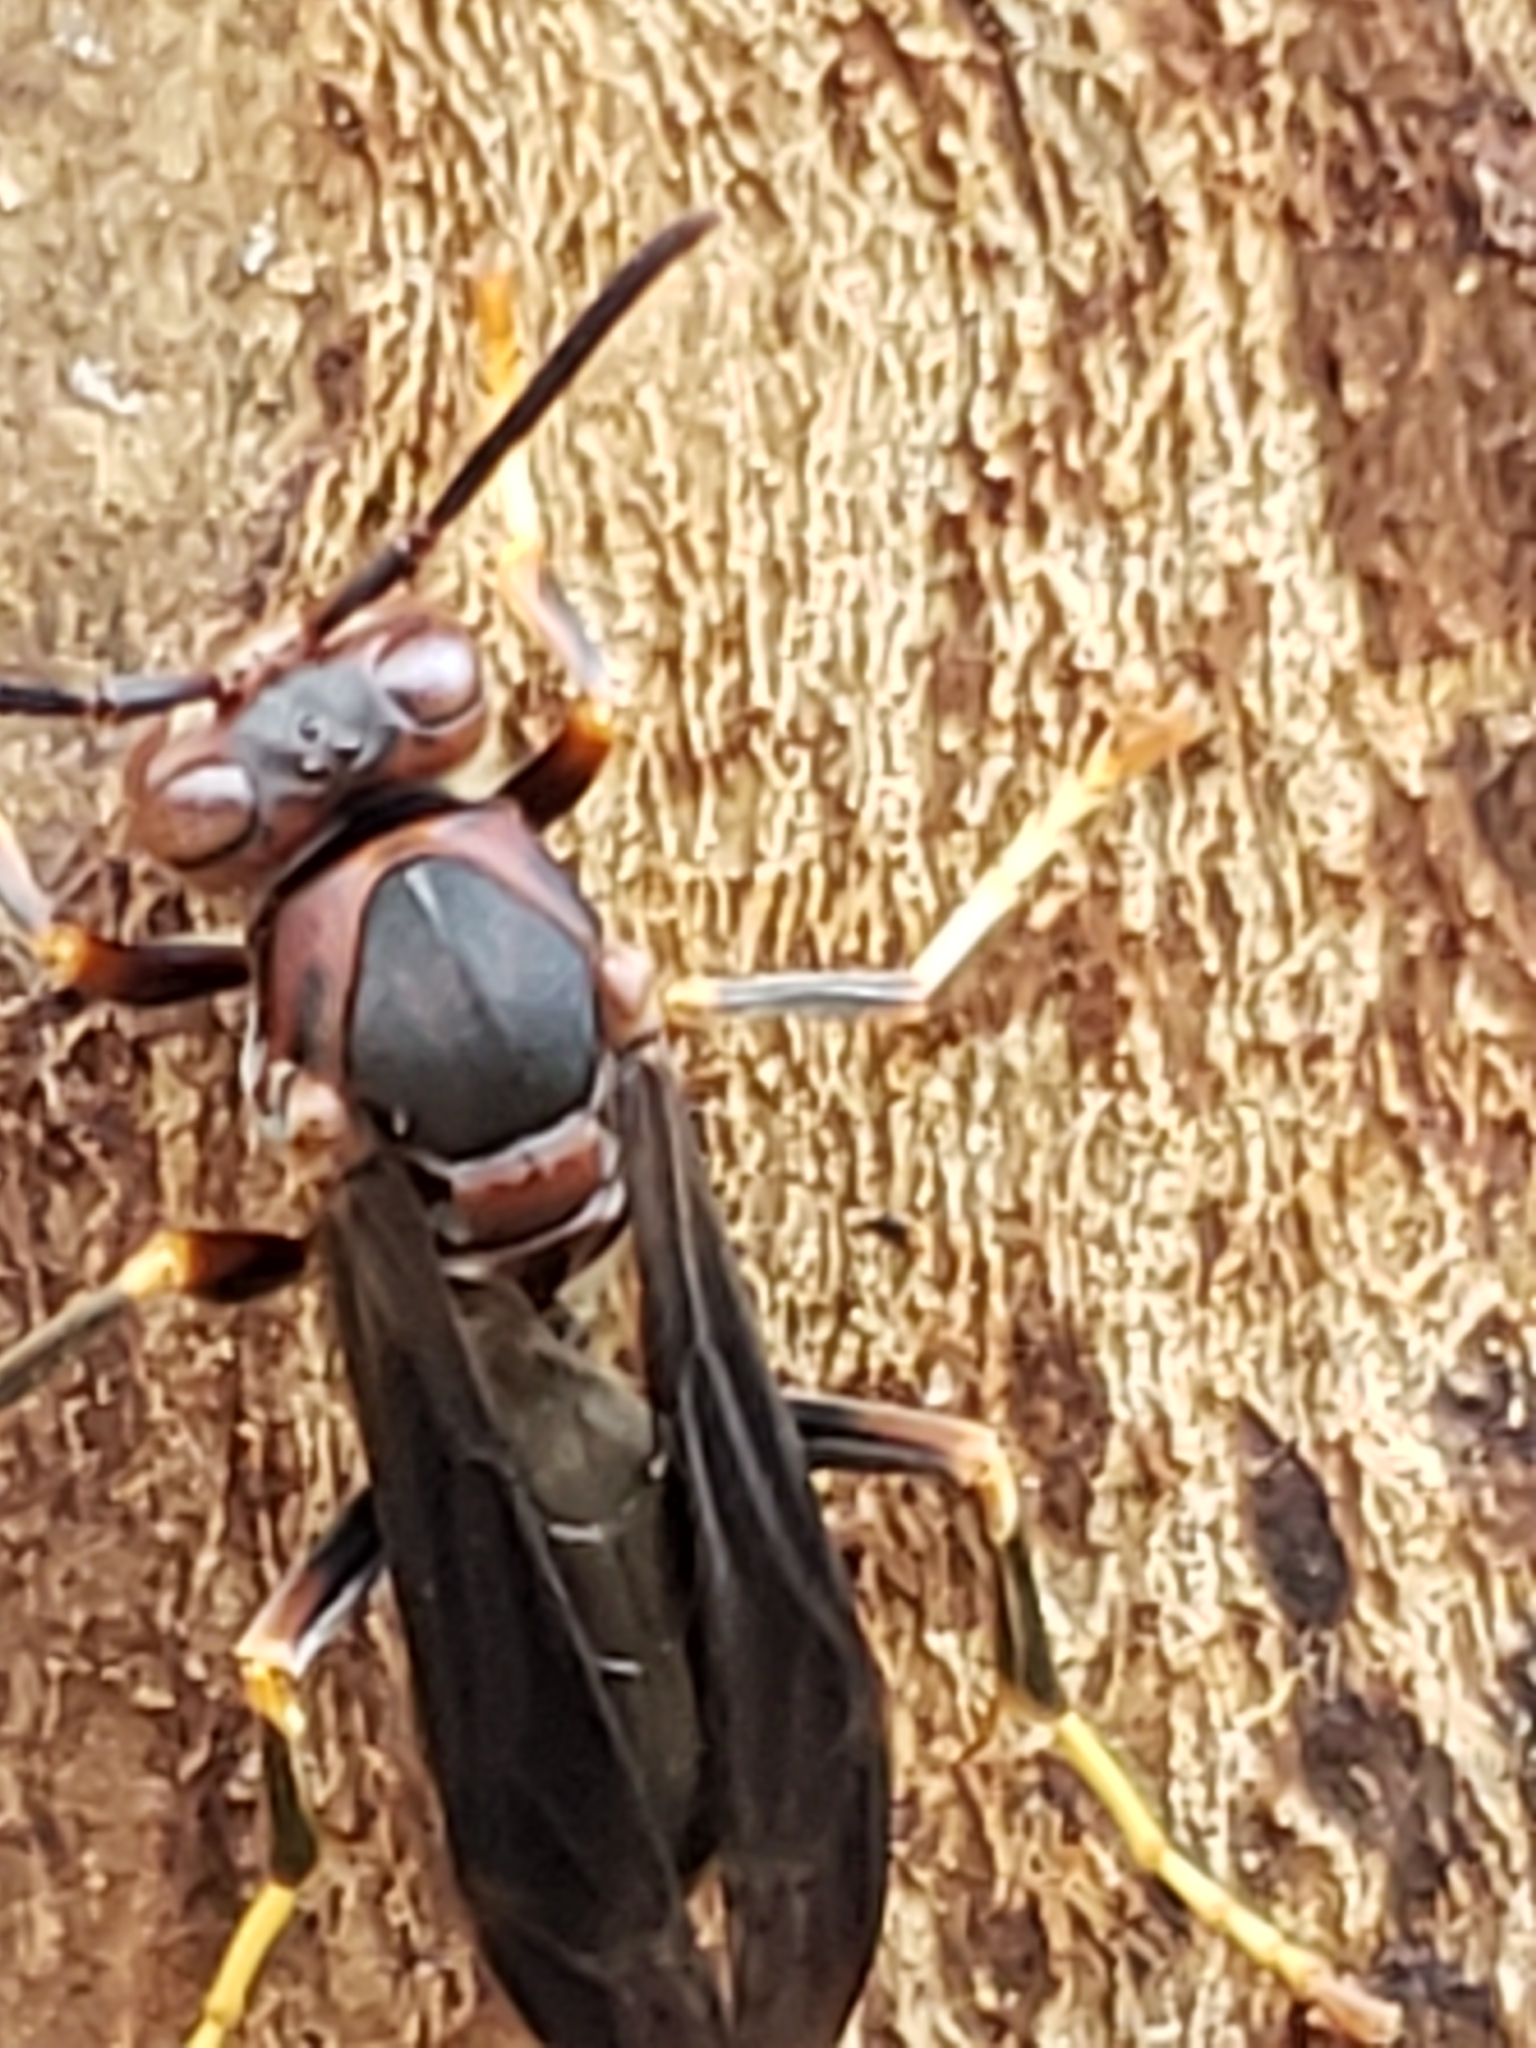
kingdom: Animalia
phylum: Arthropoda
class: Insecta
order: Hymenoptera
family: Eumenidae
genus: Polistes
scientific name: Polistes parametricus
